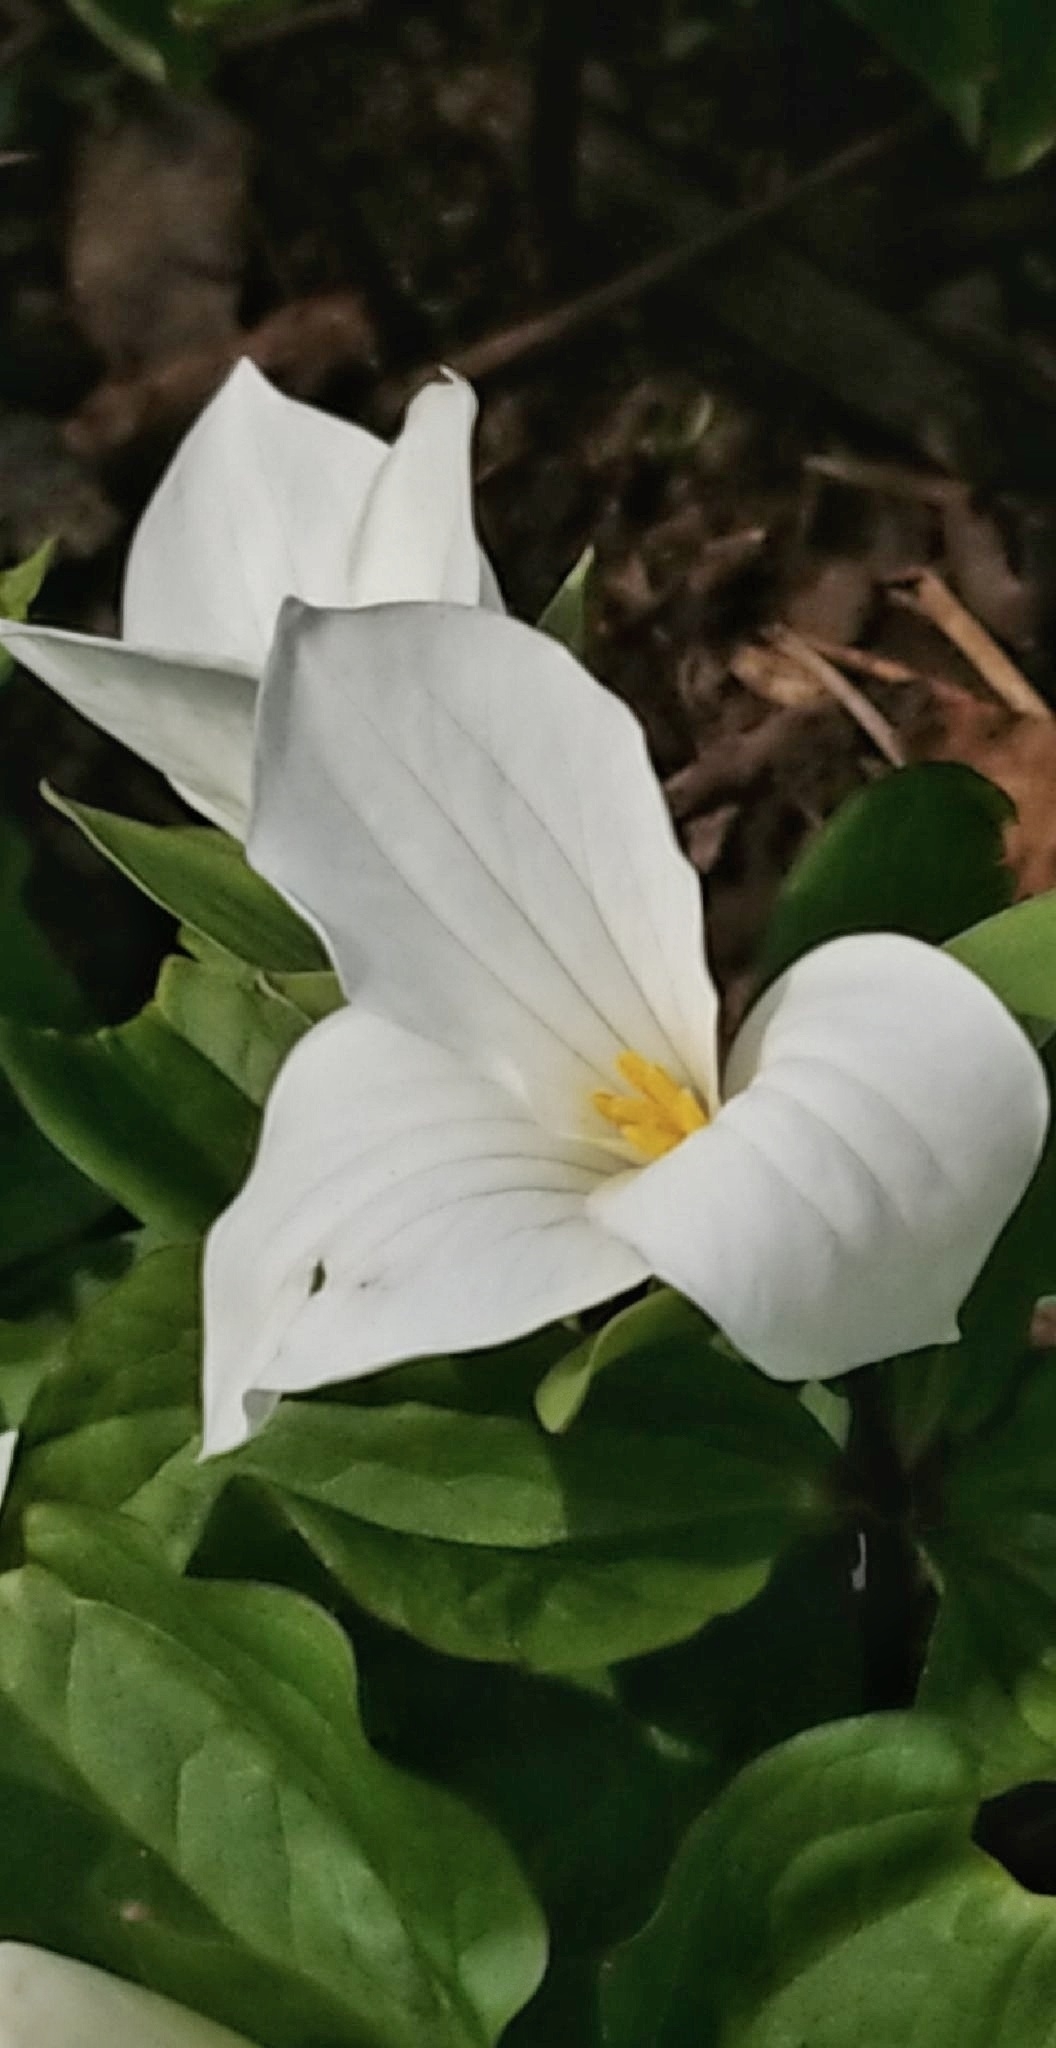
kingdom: Plantae
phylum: Tracheophyta
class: Liliopsida
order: Liliales
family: Melanthiaceae
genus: Trillium
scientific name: Trillium grandiflorum
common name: Great white trillium
